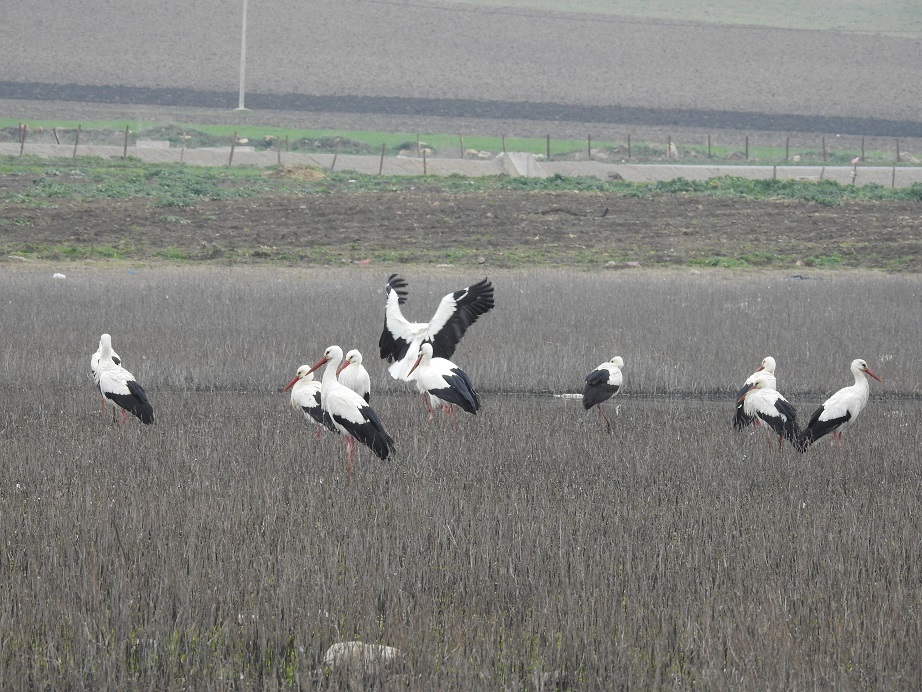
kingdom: Animalia
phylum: Chordata
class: Aves
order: Ciconiiformes
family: Ciconiidae
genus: Ciconia
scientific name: Ciconia ciconia
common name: White stork
